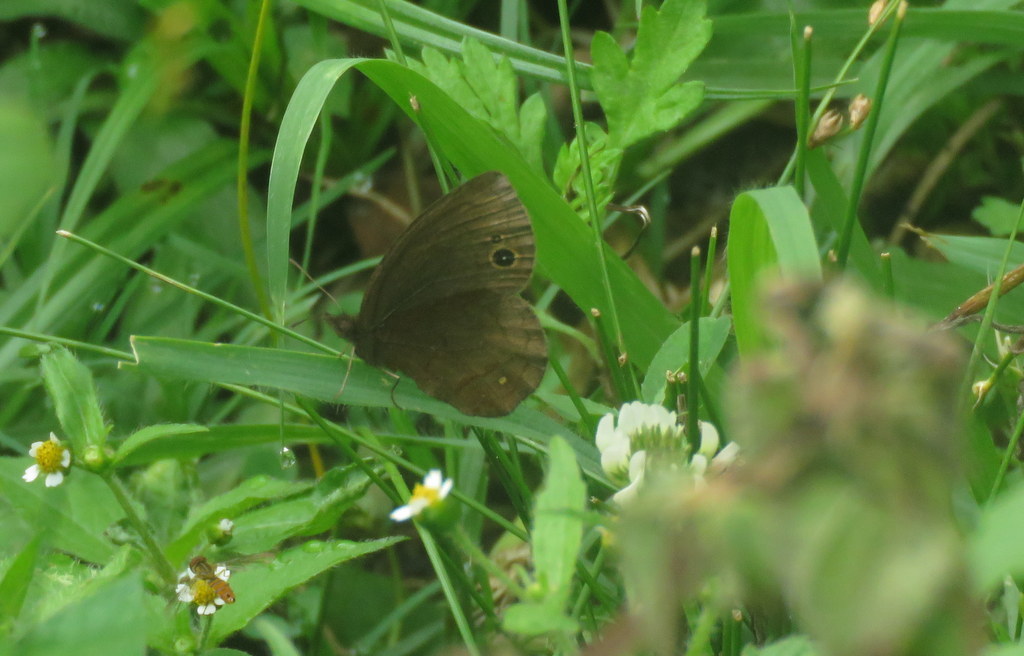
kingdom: Animalia
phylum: Arthropoda
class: Insecta
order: Lepidoptera
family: Nymphalidae
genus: Manerebia
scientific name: Manerebia cyclopina
